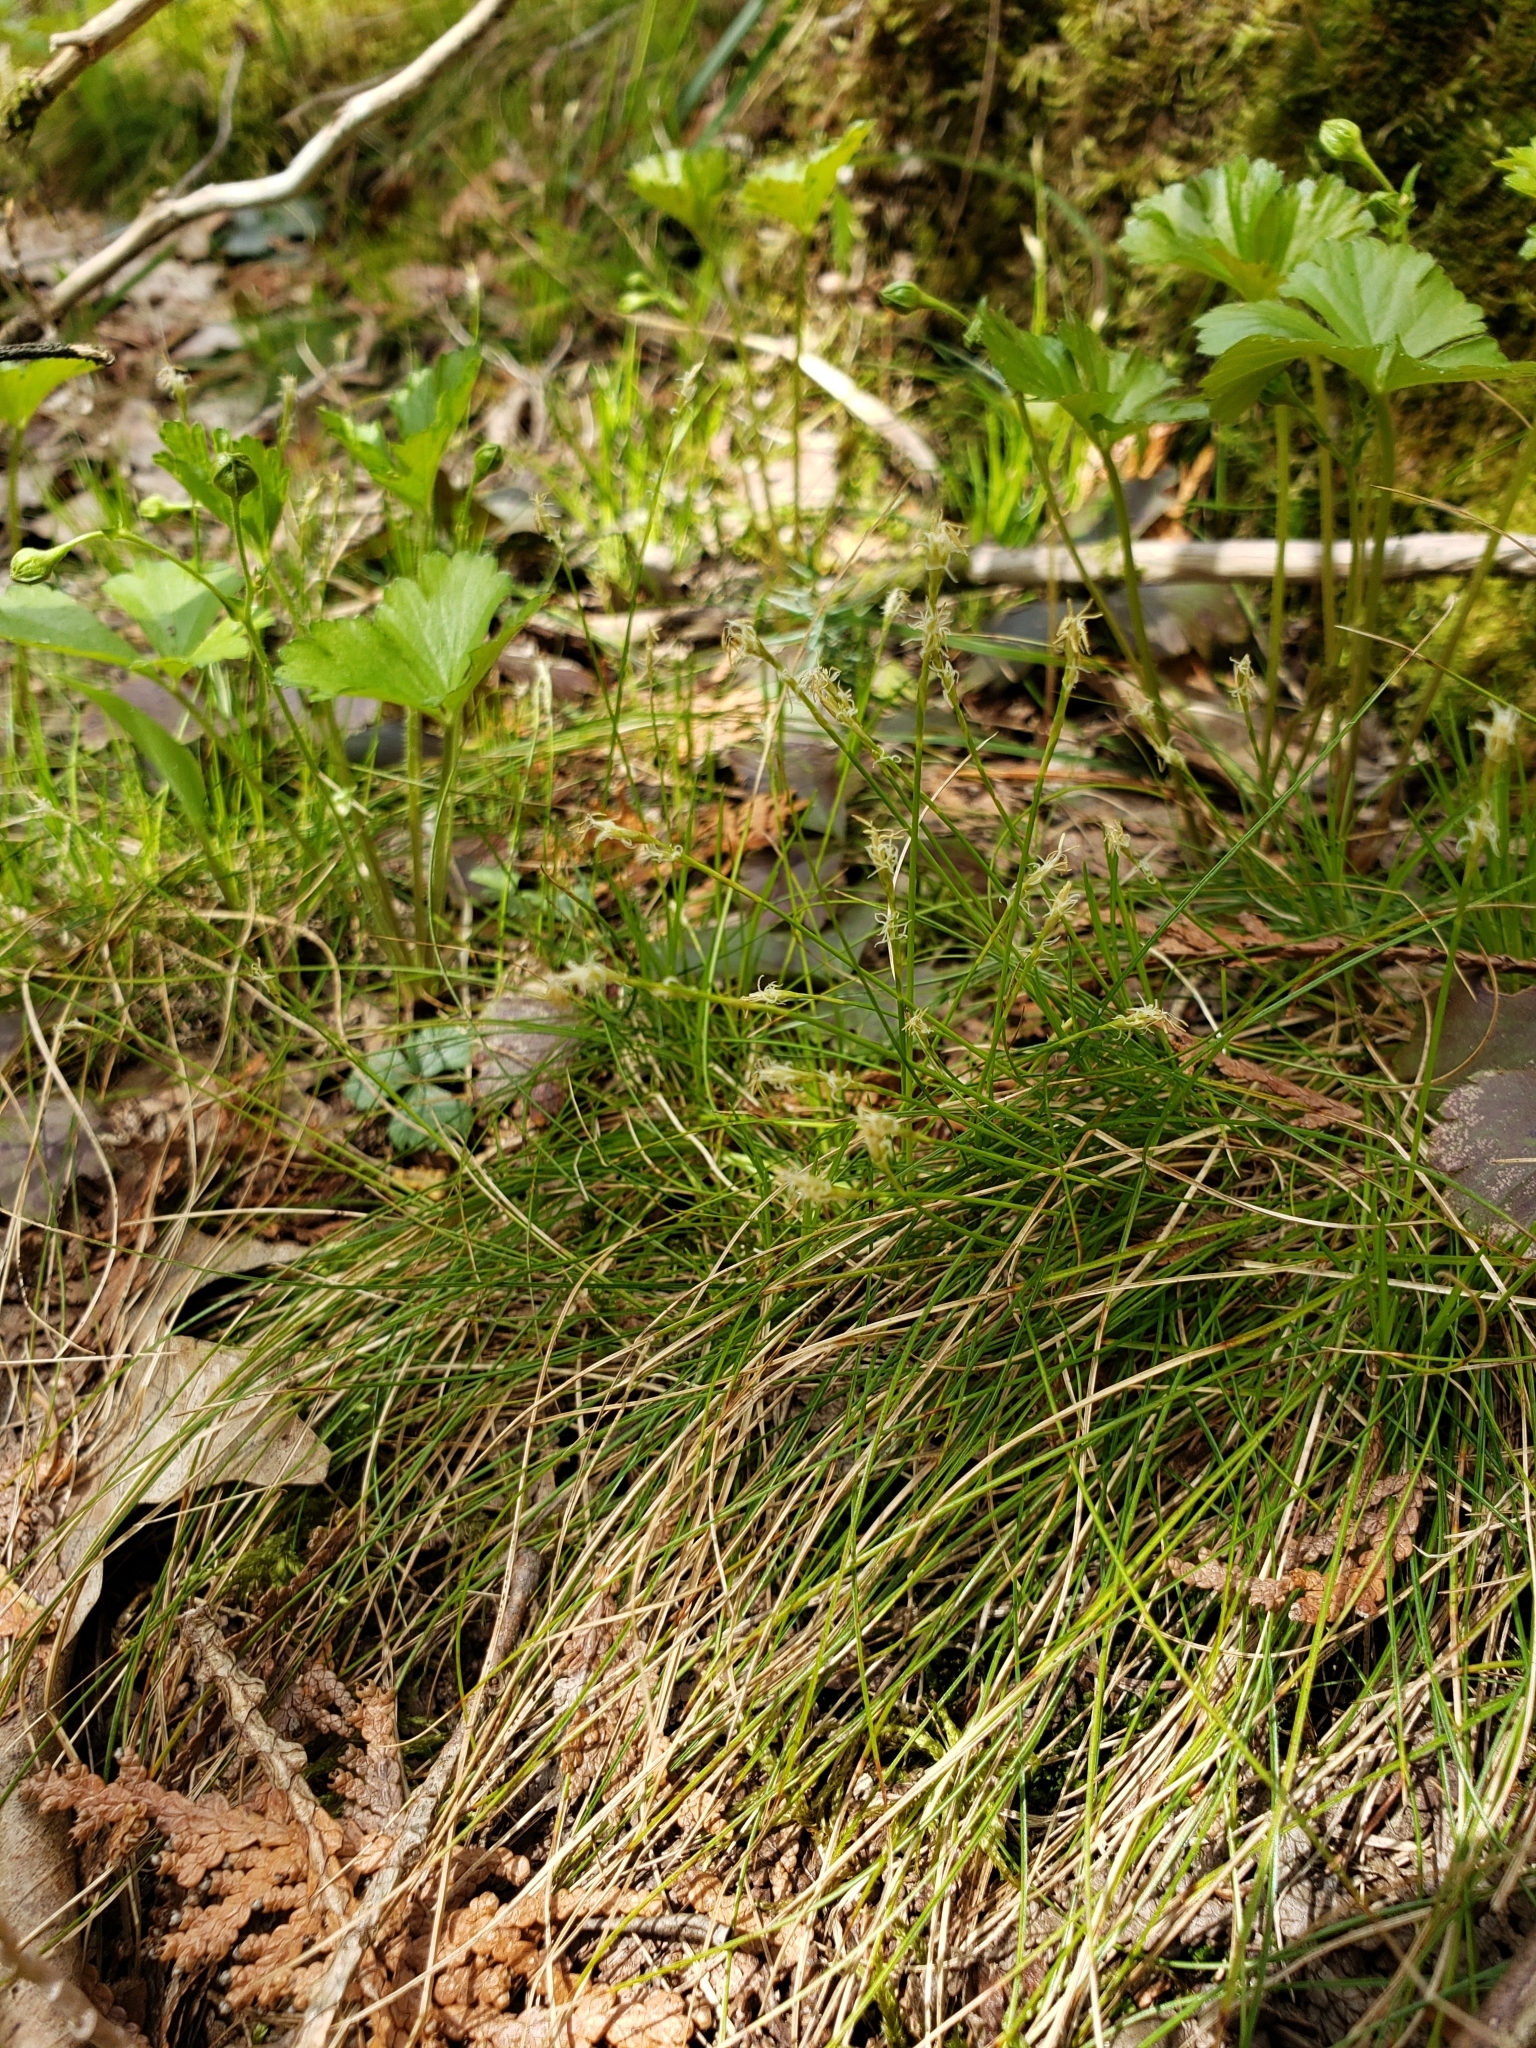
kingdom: Plantae
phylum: Tracheophyta
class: Liliopsida
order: Poales
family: Cyperaceae
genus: Carex
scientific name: Carex eburnea
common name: Bristle-leaved sedge
